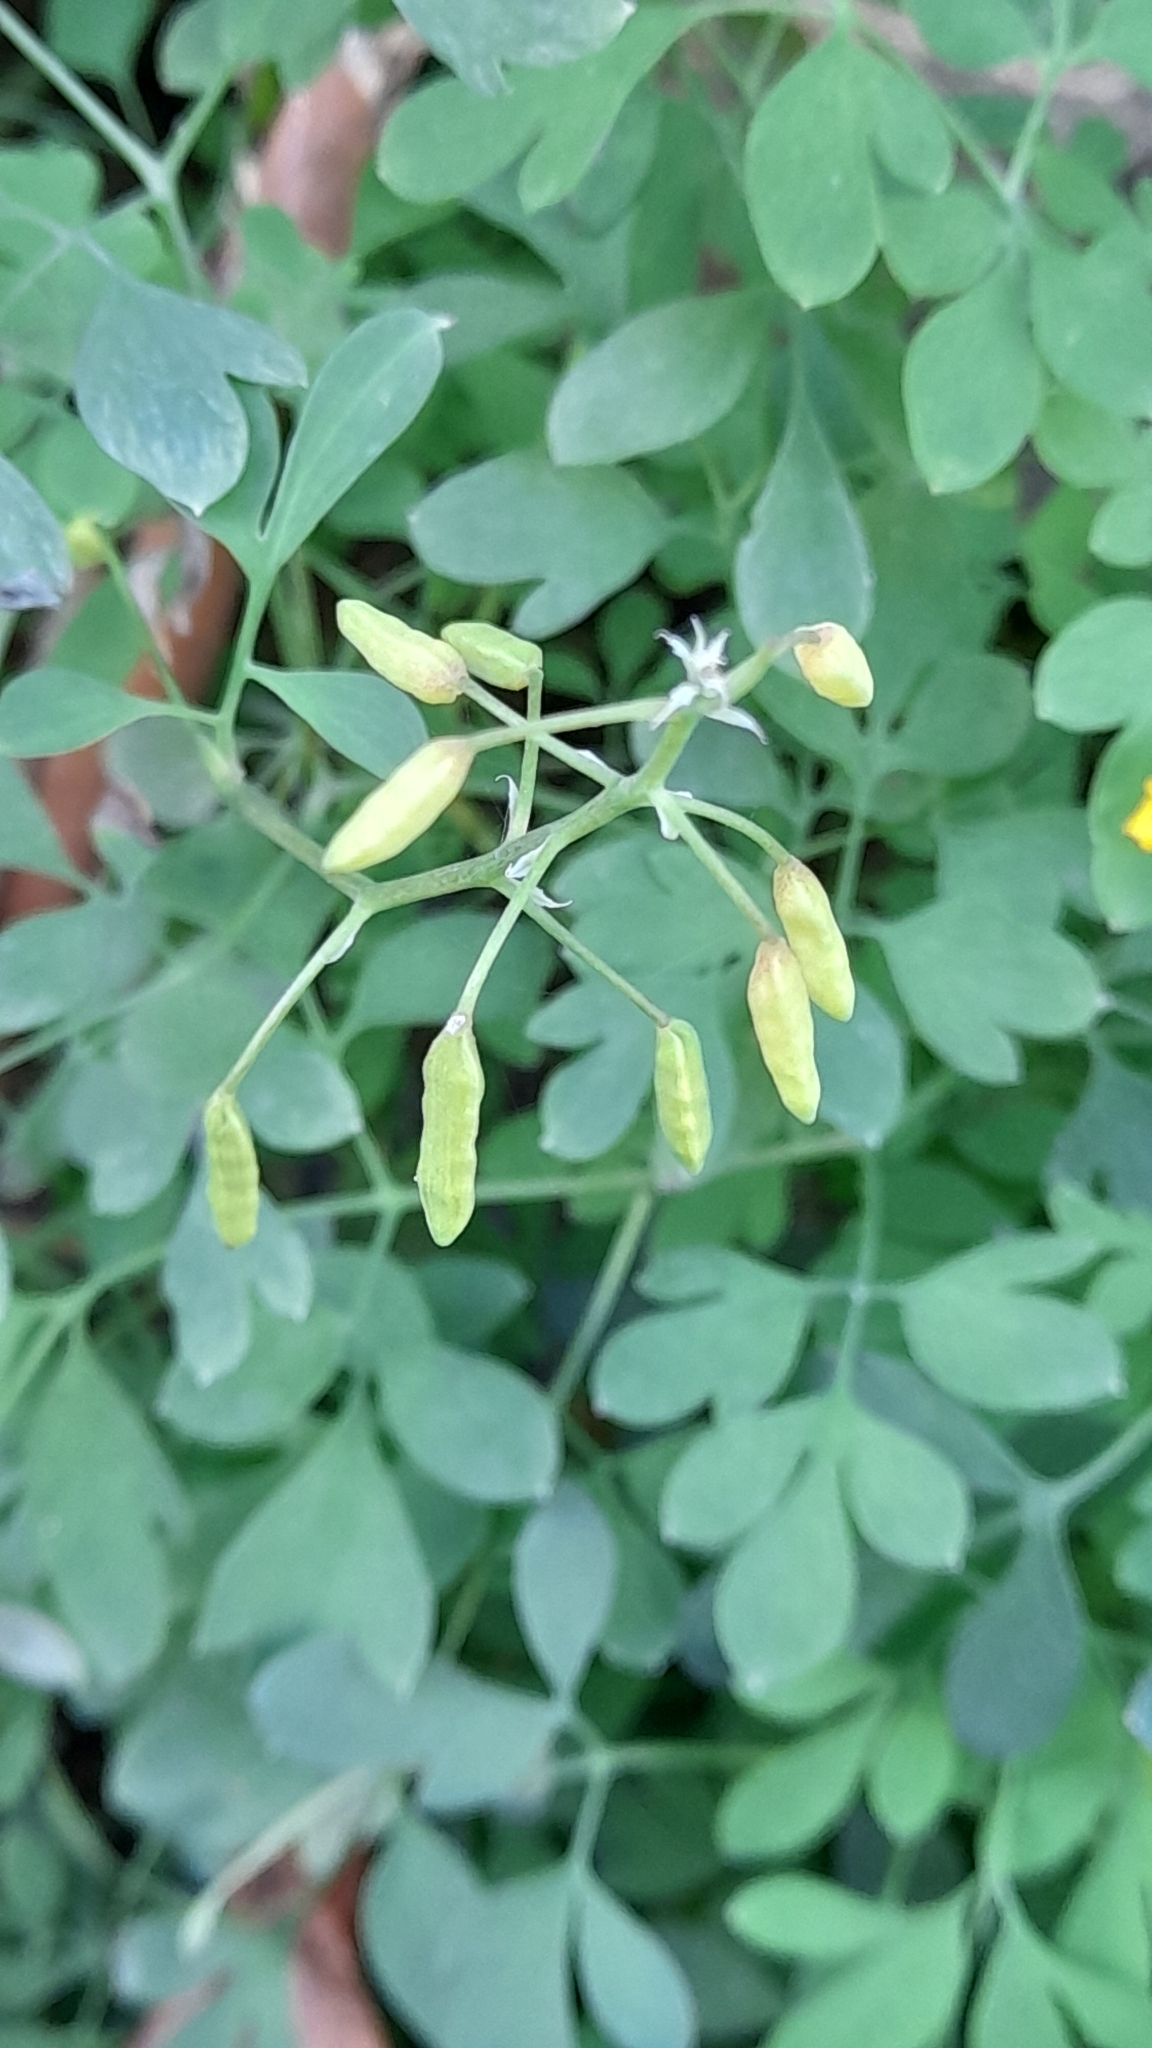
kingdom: Plantae
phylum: Tracheophyta
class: Magnoliopsida
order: Ranunculales
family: Papaveraceae
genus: Pseudofumaria
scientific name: Pseudofumaria lutea
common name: Yellow corydalis
